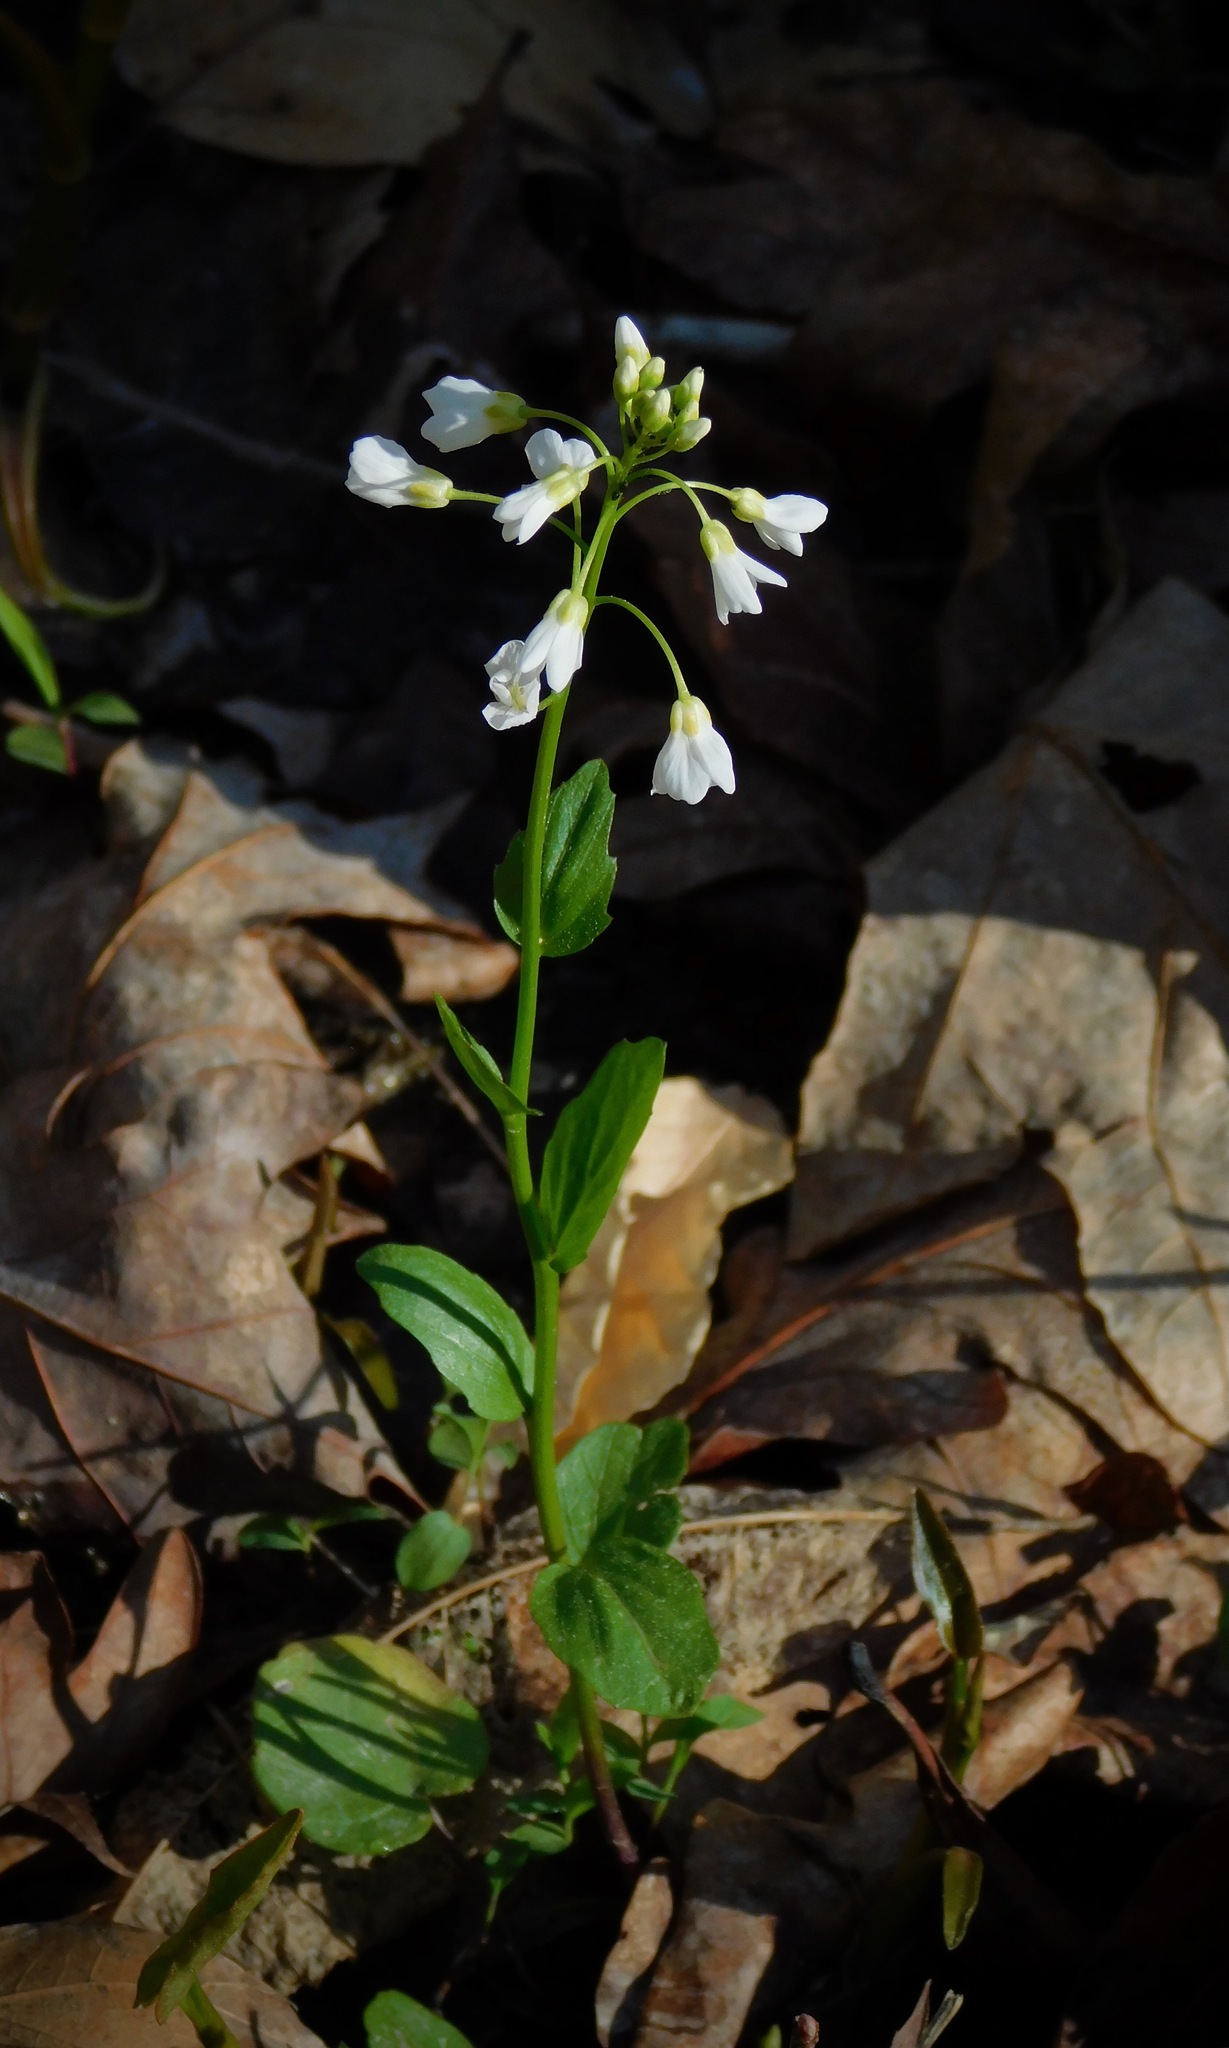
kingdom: Plantae
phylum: Tracheophyta
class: Magnoliopsida
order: Brassicales
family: Brassicaceae
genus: Cardamine
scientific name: Cardamine bulbosa
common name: Spring cress
